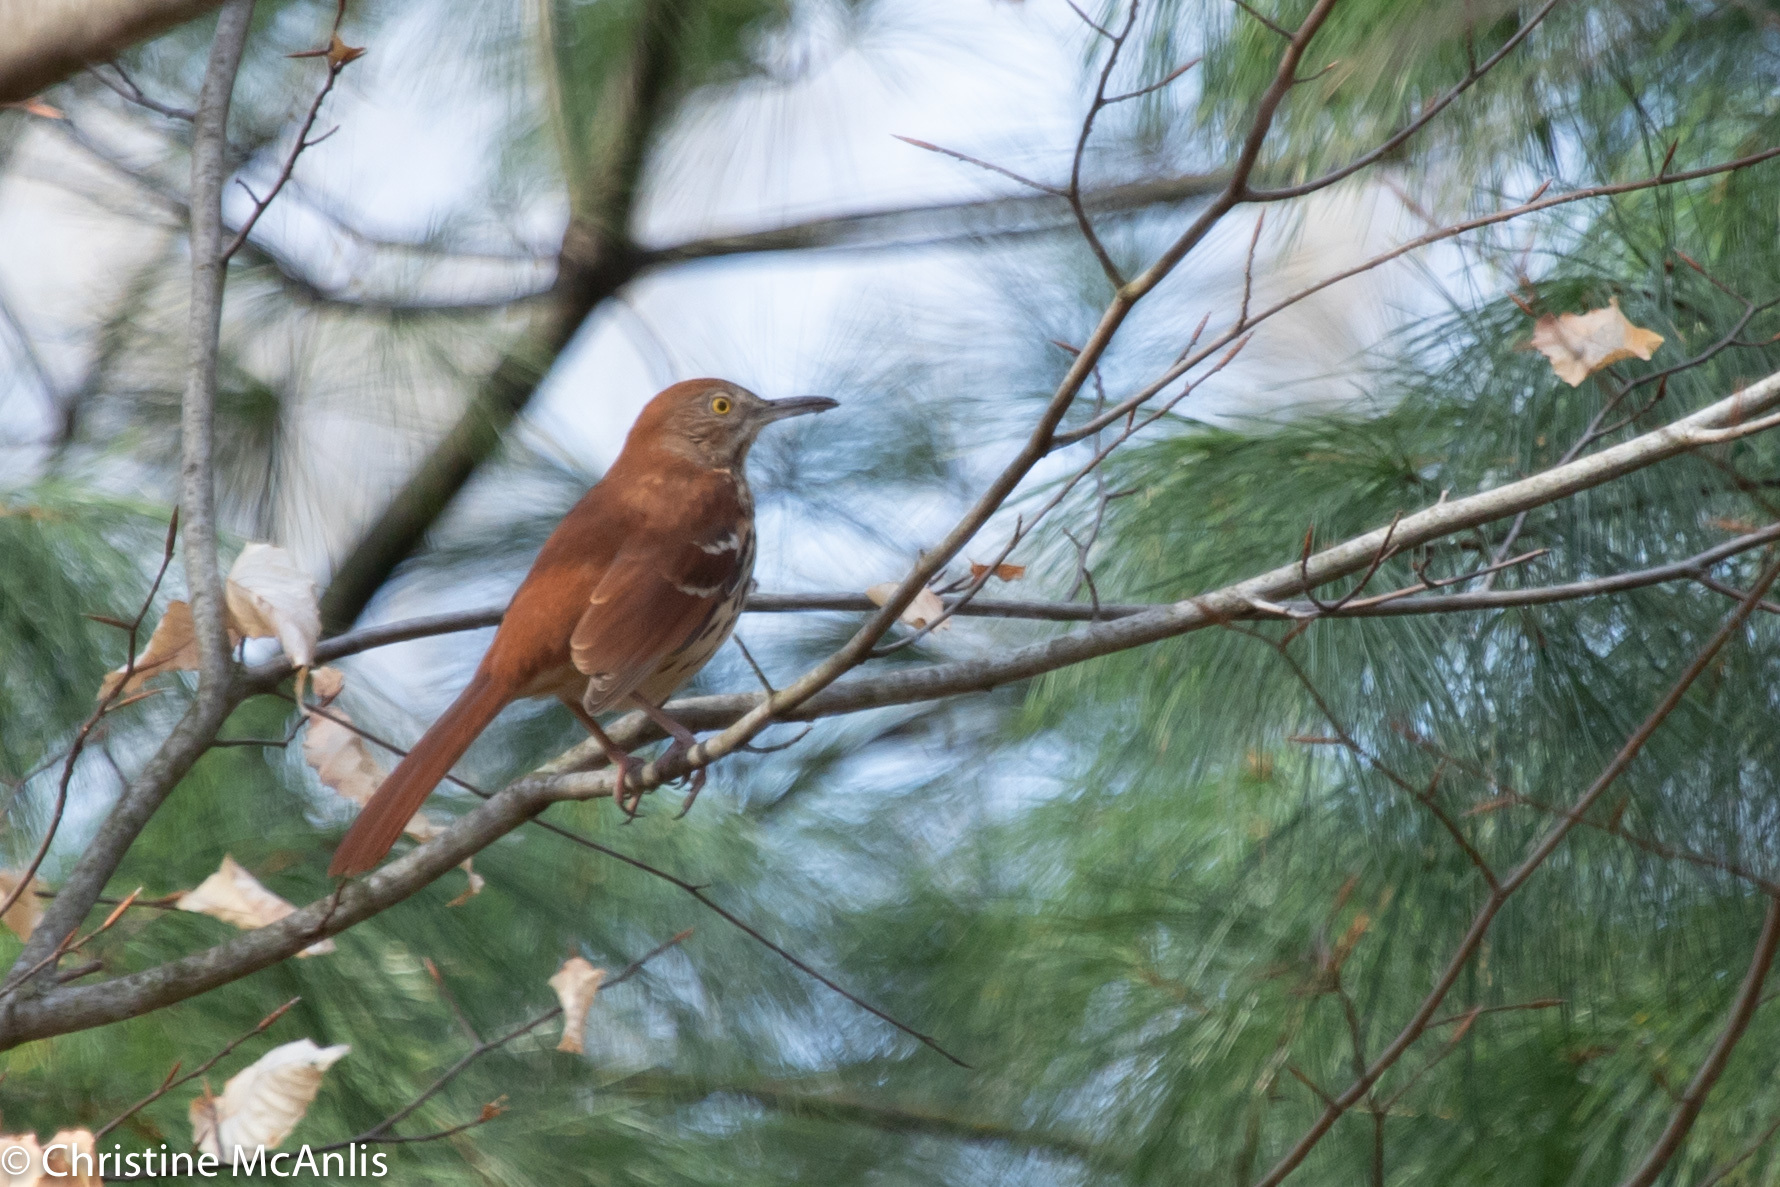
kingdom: Animalia
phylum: Chordata
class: Aves
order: Passeriformes
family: Mimidae
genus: Toxostoma
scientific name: Toxostoma rufum
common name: Brown thrasher
